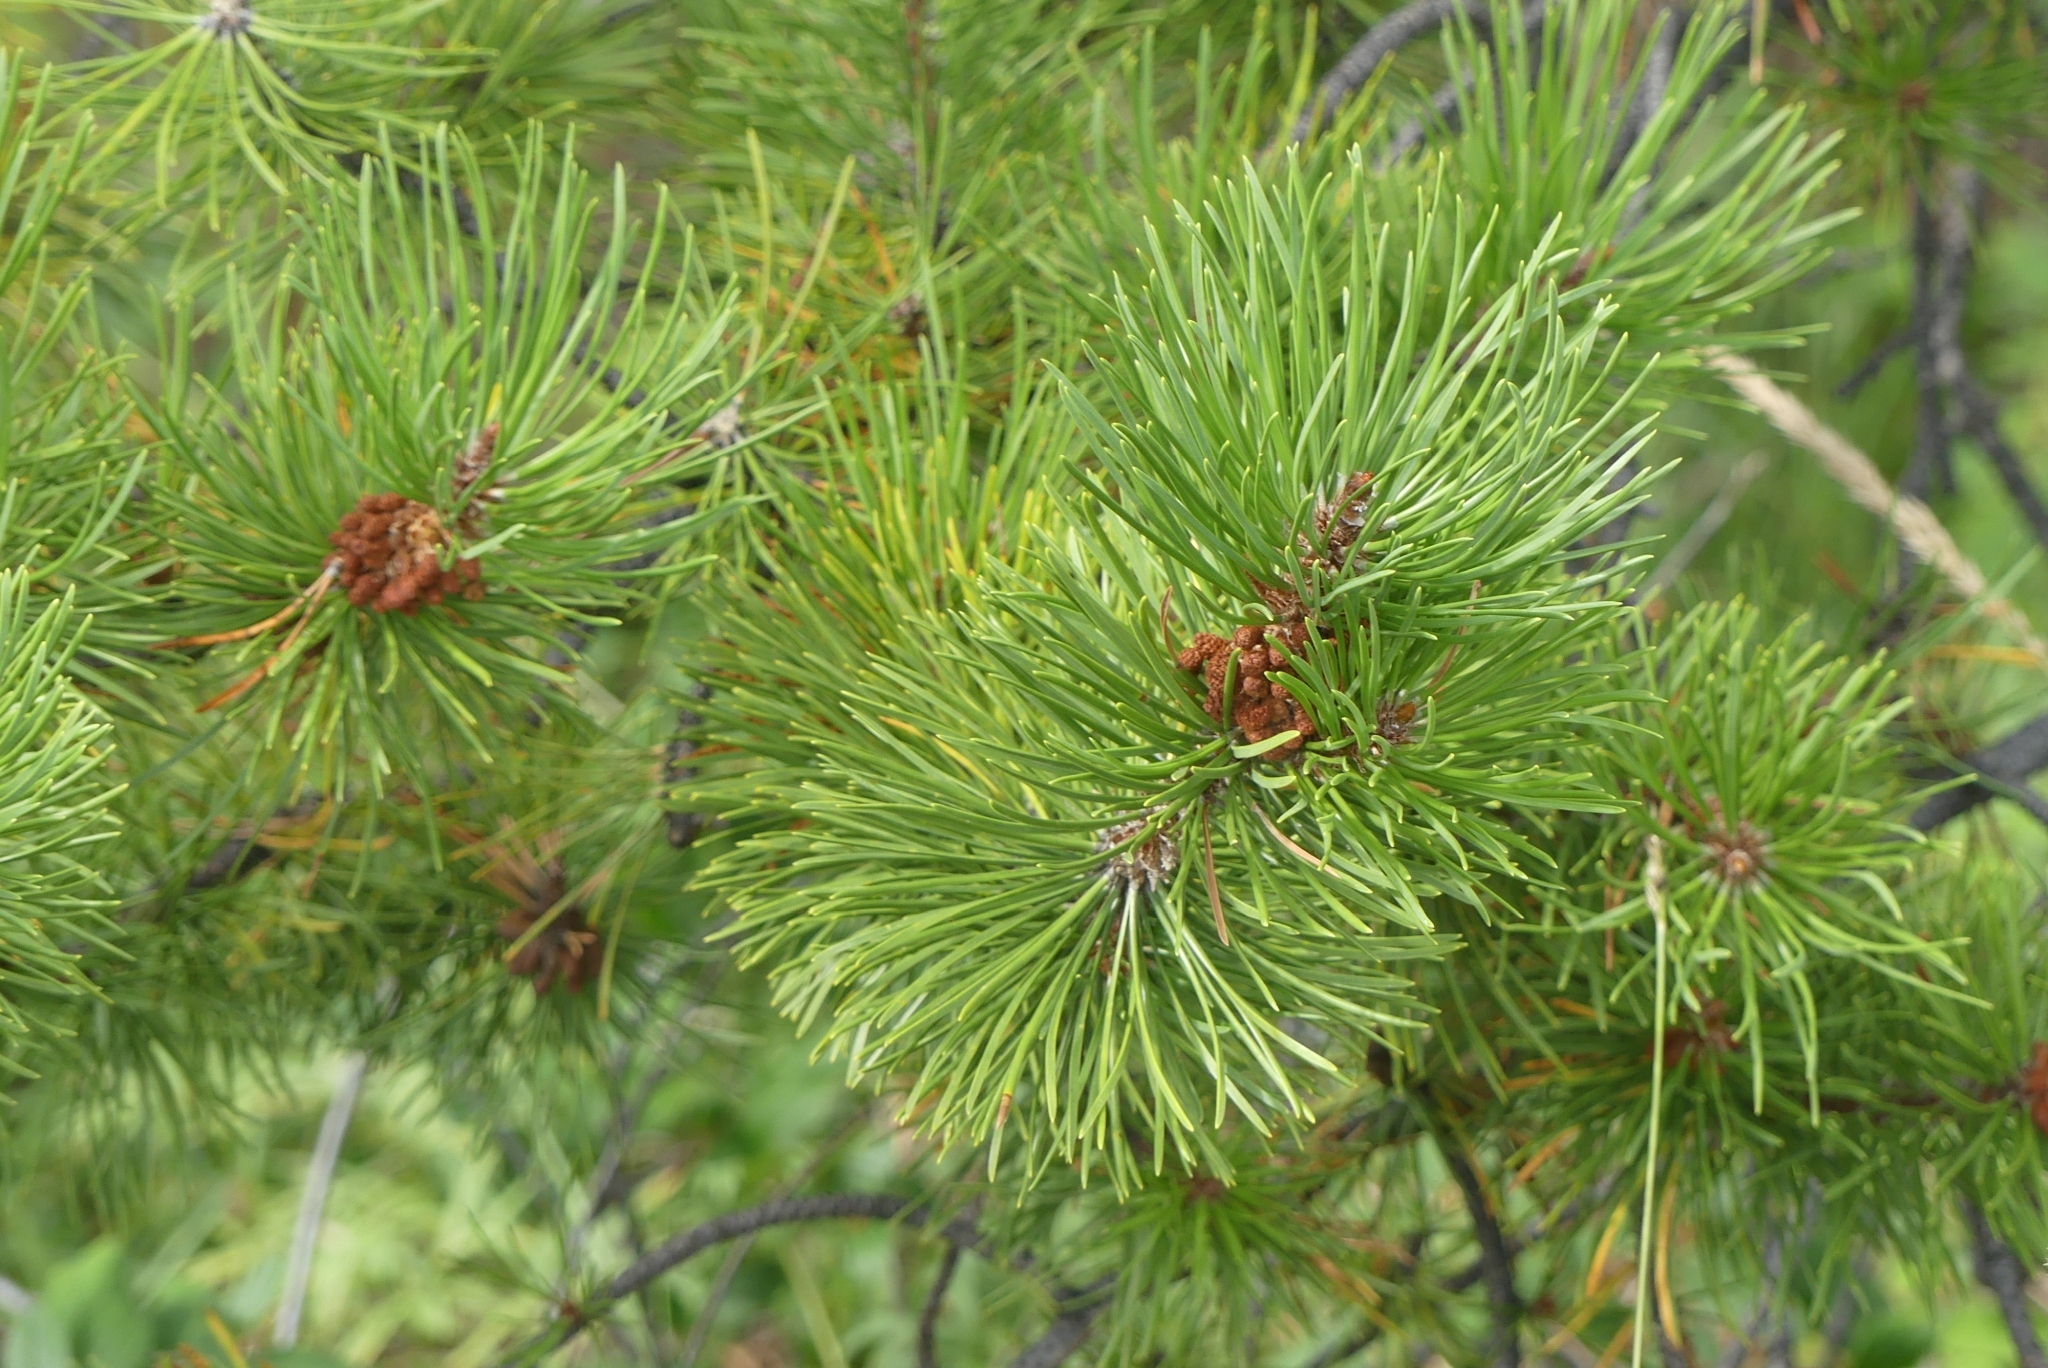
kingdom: Plantae
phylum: Tracheophyta
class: Pinopsida
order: Pinales
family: Pinaceae
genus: Pinus
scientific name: Pinus contorta
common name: Lodgepole pine
